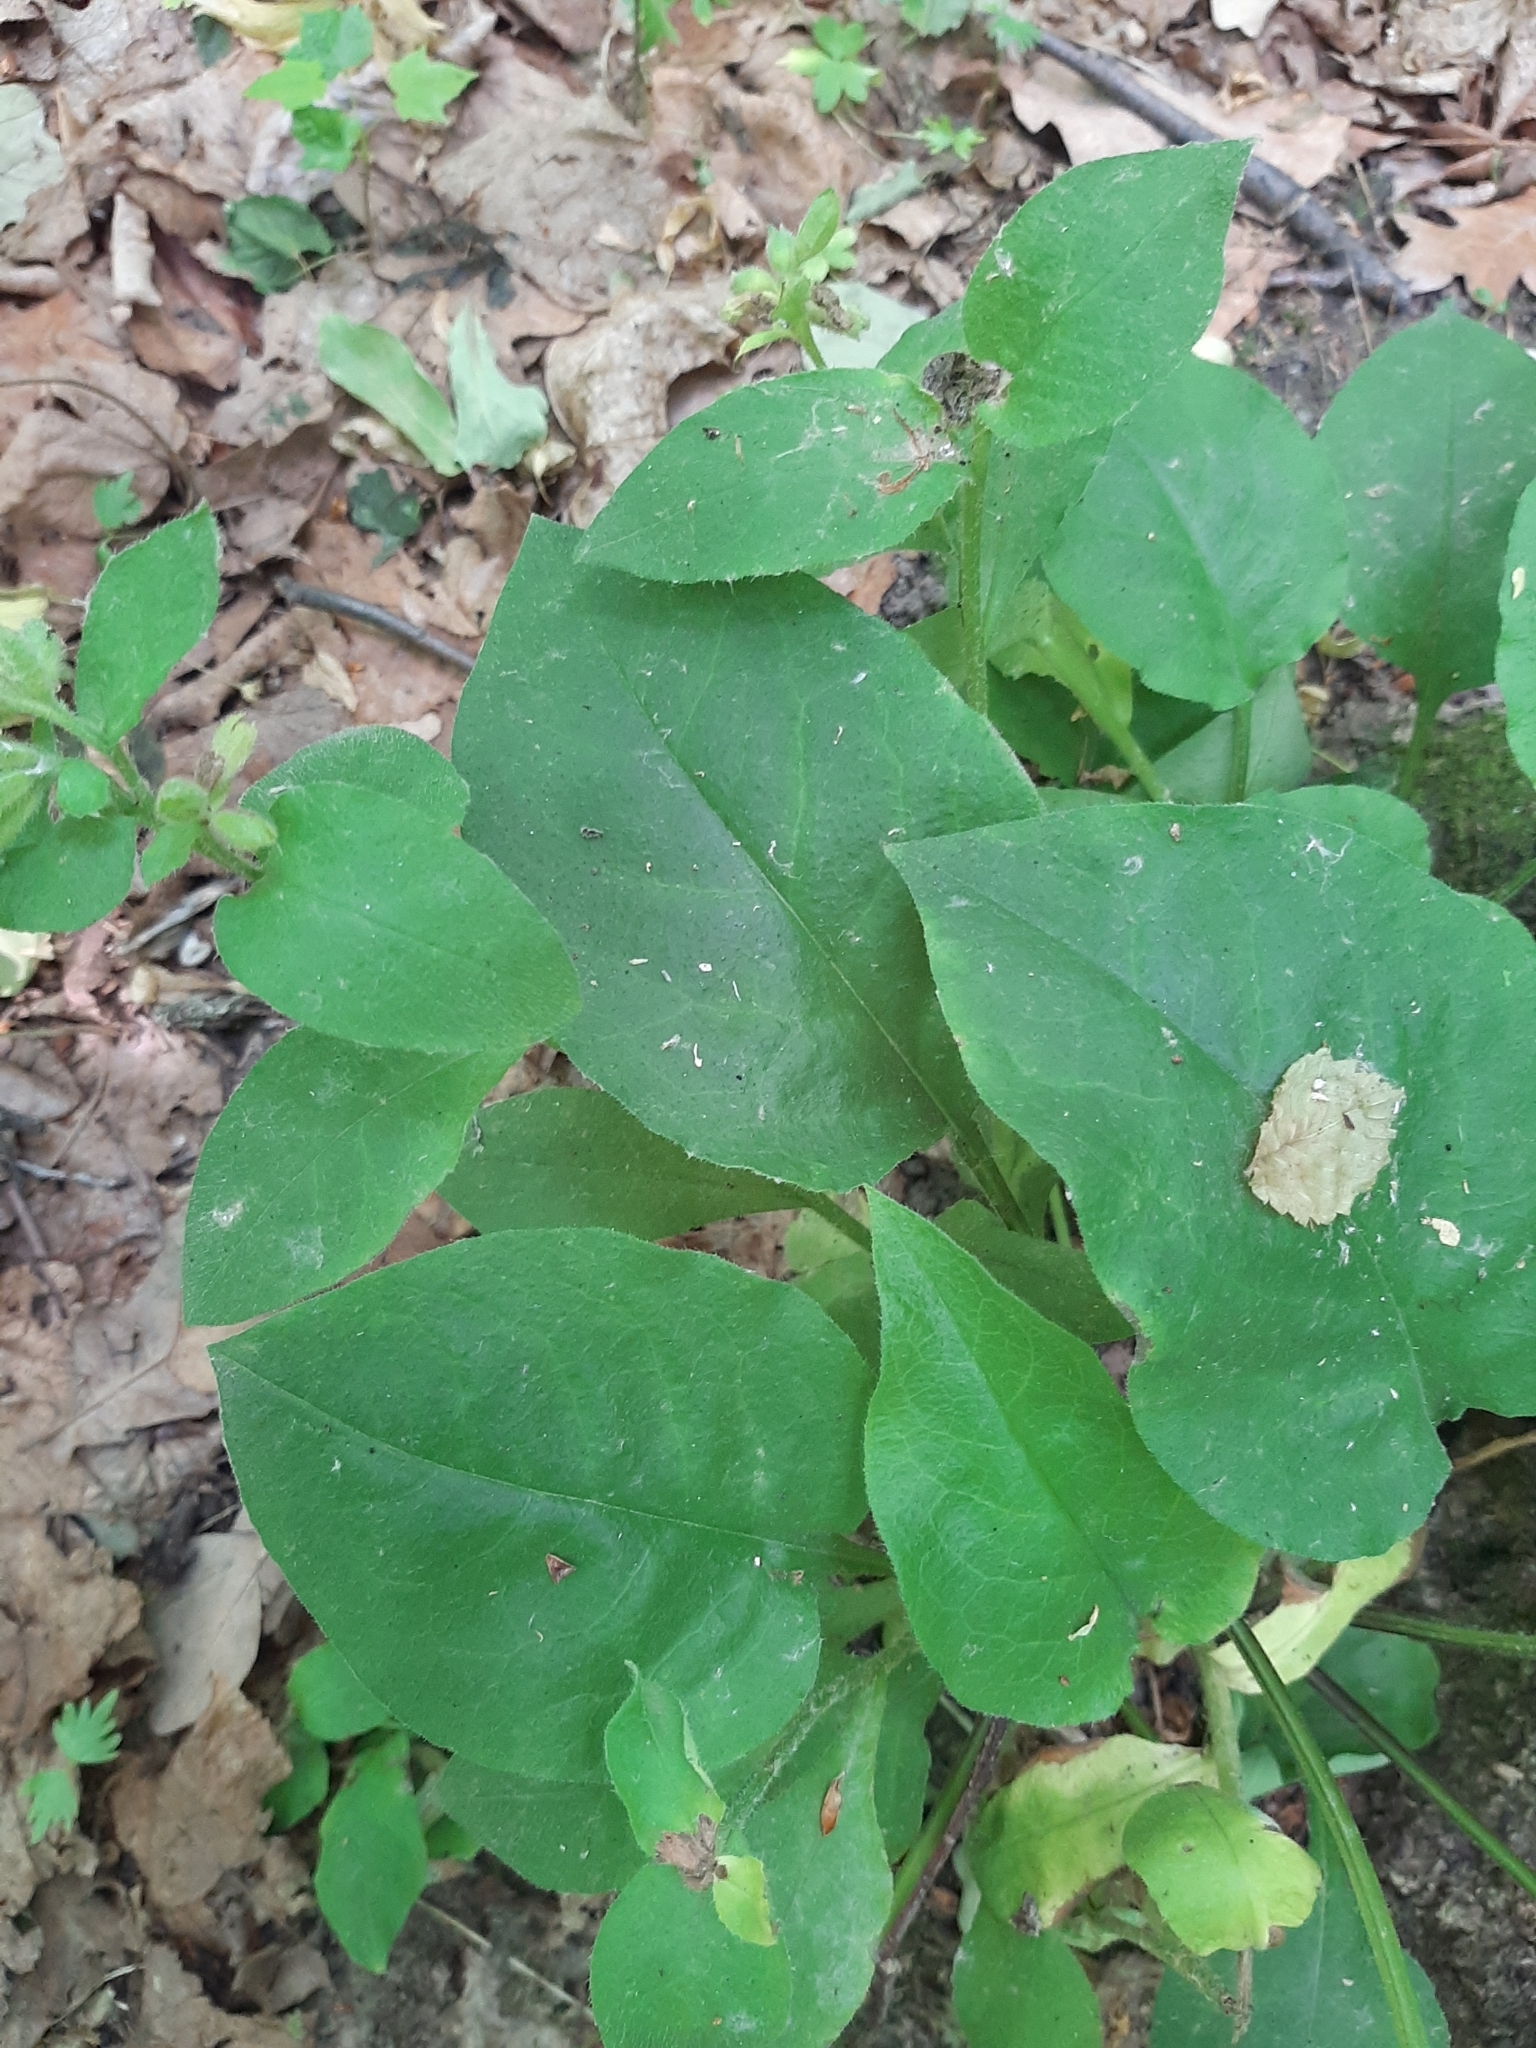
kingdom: Plantae
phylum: Tracheophyta
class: Magnoliopsida
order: Boraginales
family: Boraginaceae
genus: Pulmonaria
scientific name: Pulmonaria obscura
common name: Suffolk lungwort
